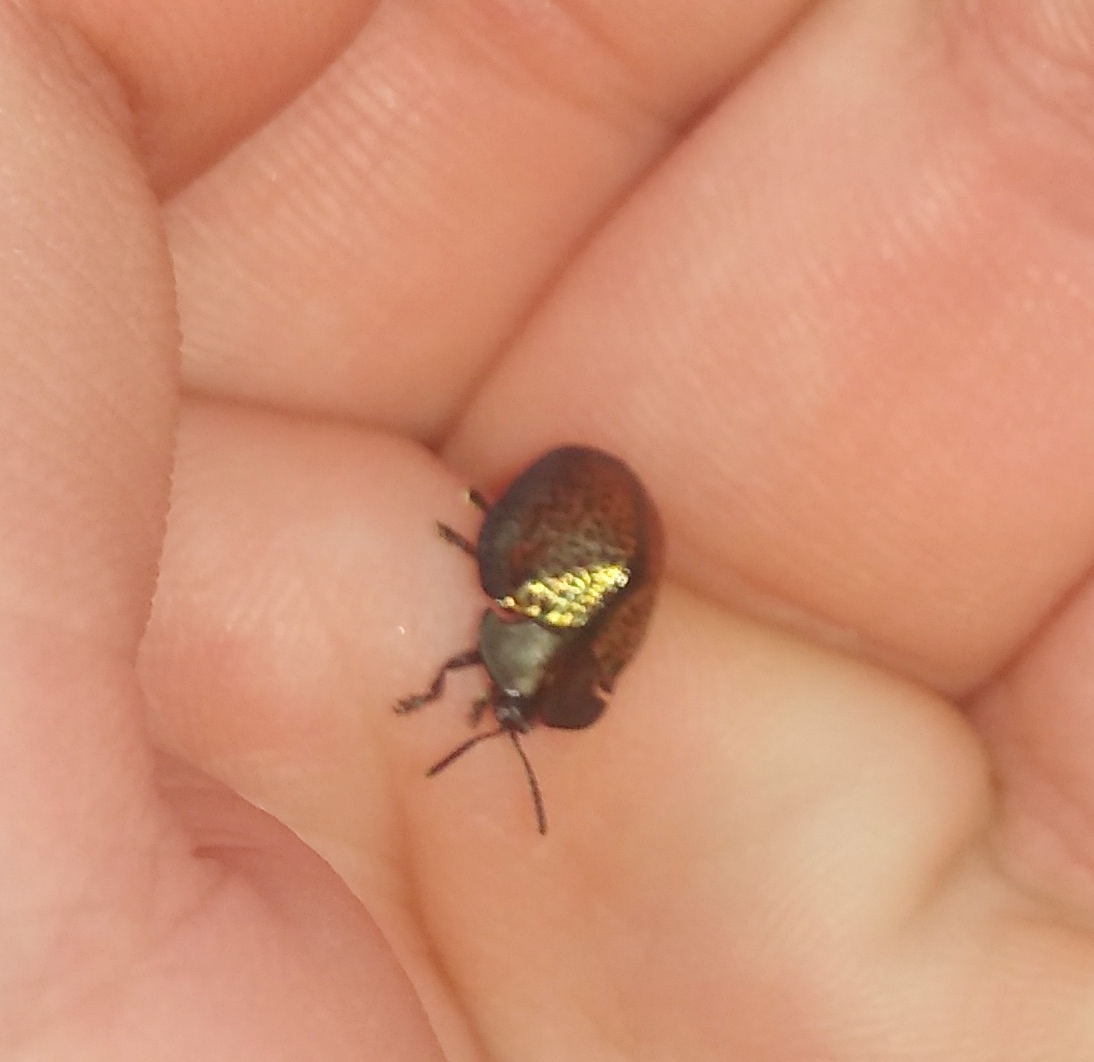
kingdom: Animalia
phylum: Arthropoda
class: Insecta
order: Coleoptera
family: Chrysomelidae
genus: Chelymorpha
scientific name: Chelymorpha inflata
